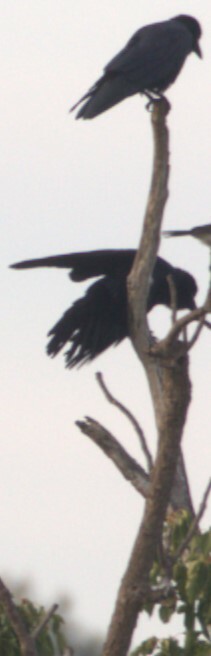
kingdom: Animalia
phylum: Chordata
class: Aves
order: Passeriformes
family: Corvidae
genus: Corvus
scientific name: Corvus orru
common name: Torresian crow
